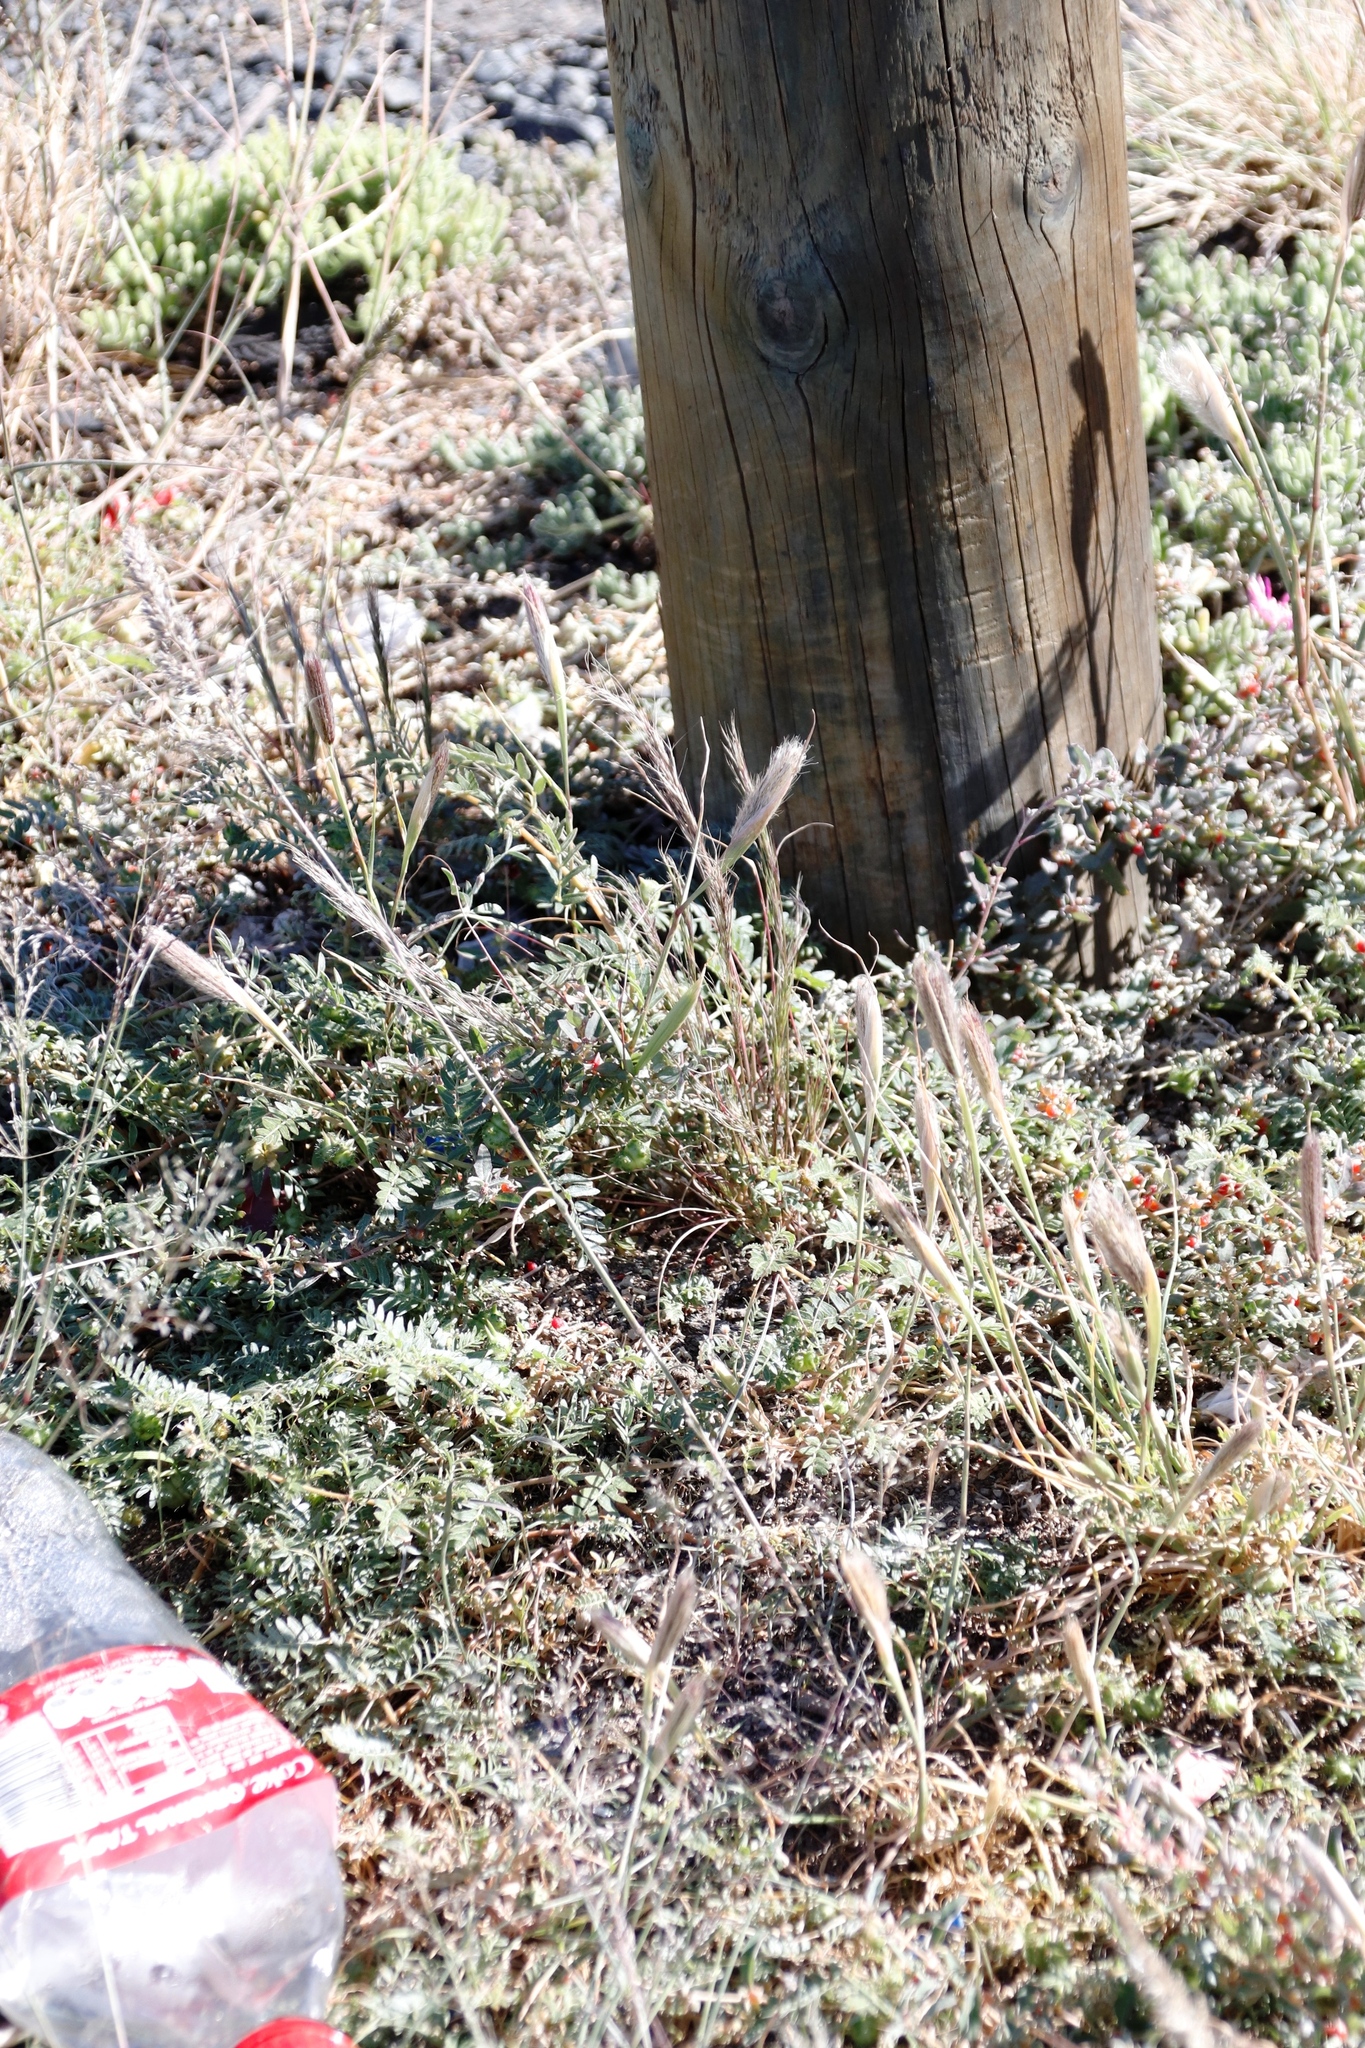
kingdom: Plantae
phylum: Tracheophyta
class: Liliopsida
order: Poales
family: Poaceae
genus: Chloris
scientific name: Chloris virgata
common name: Feathery rhodes-grass
